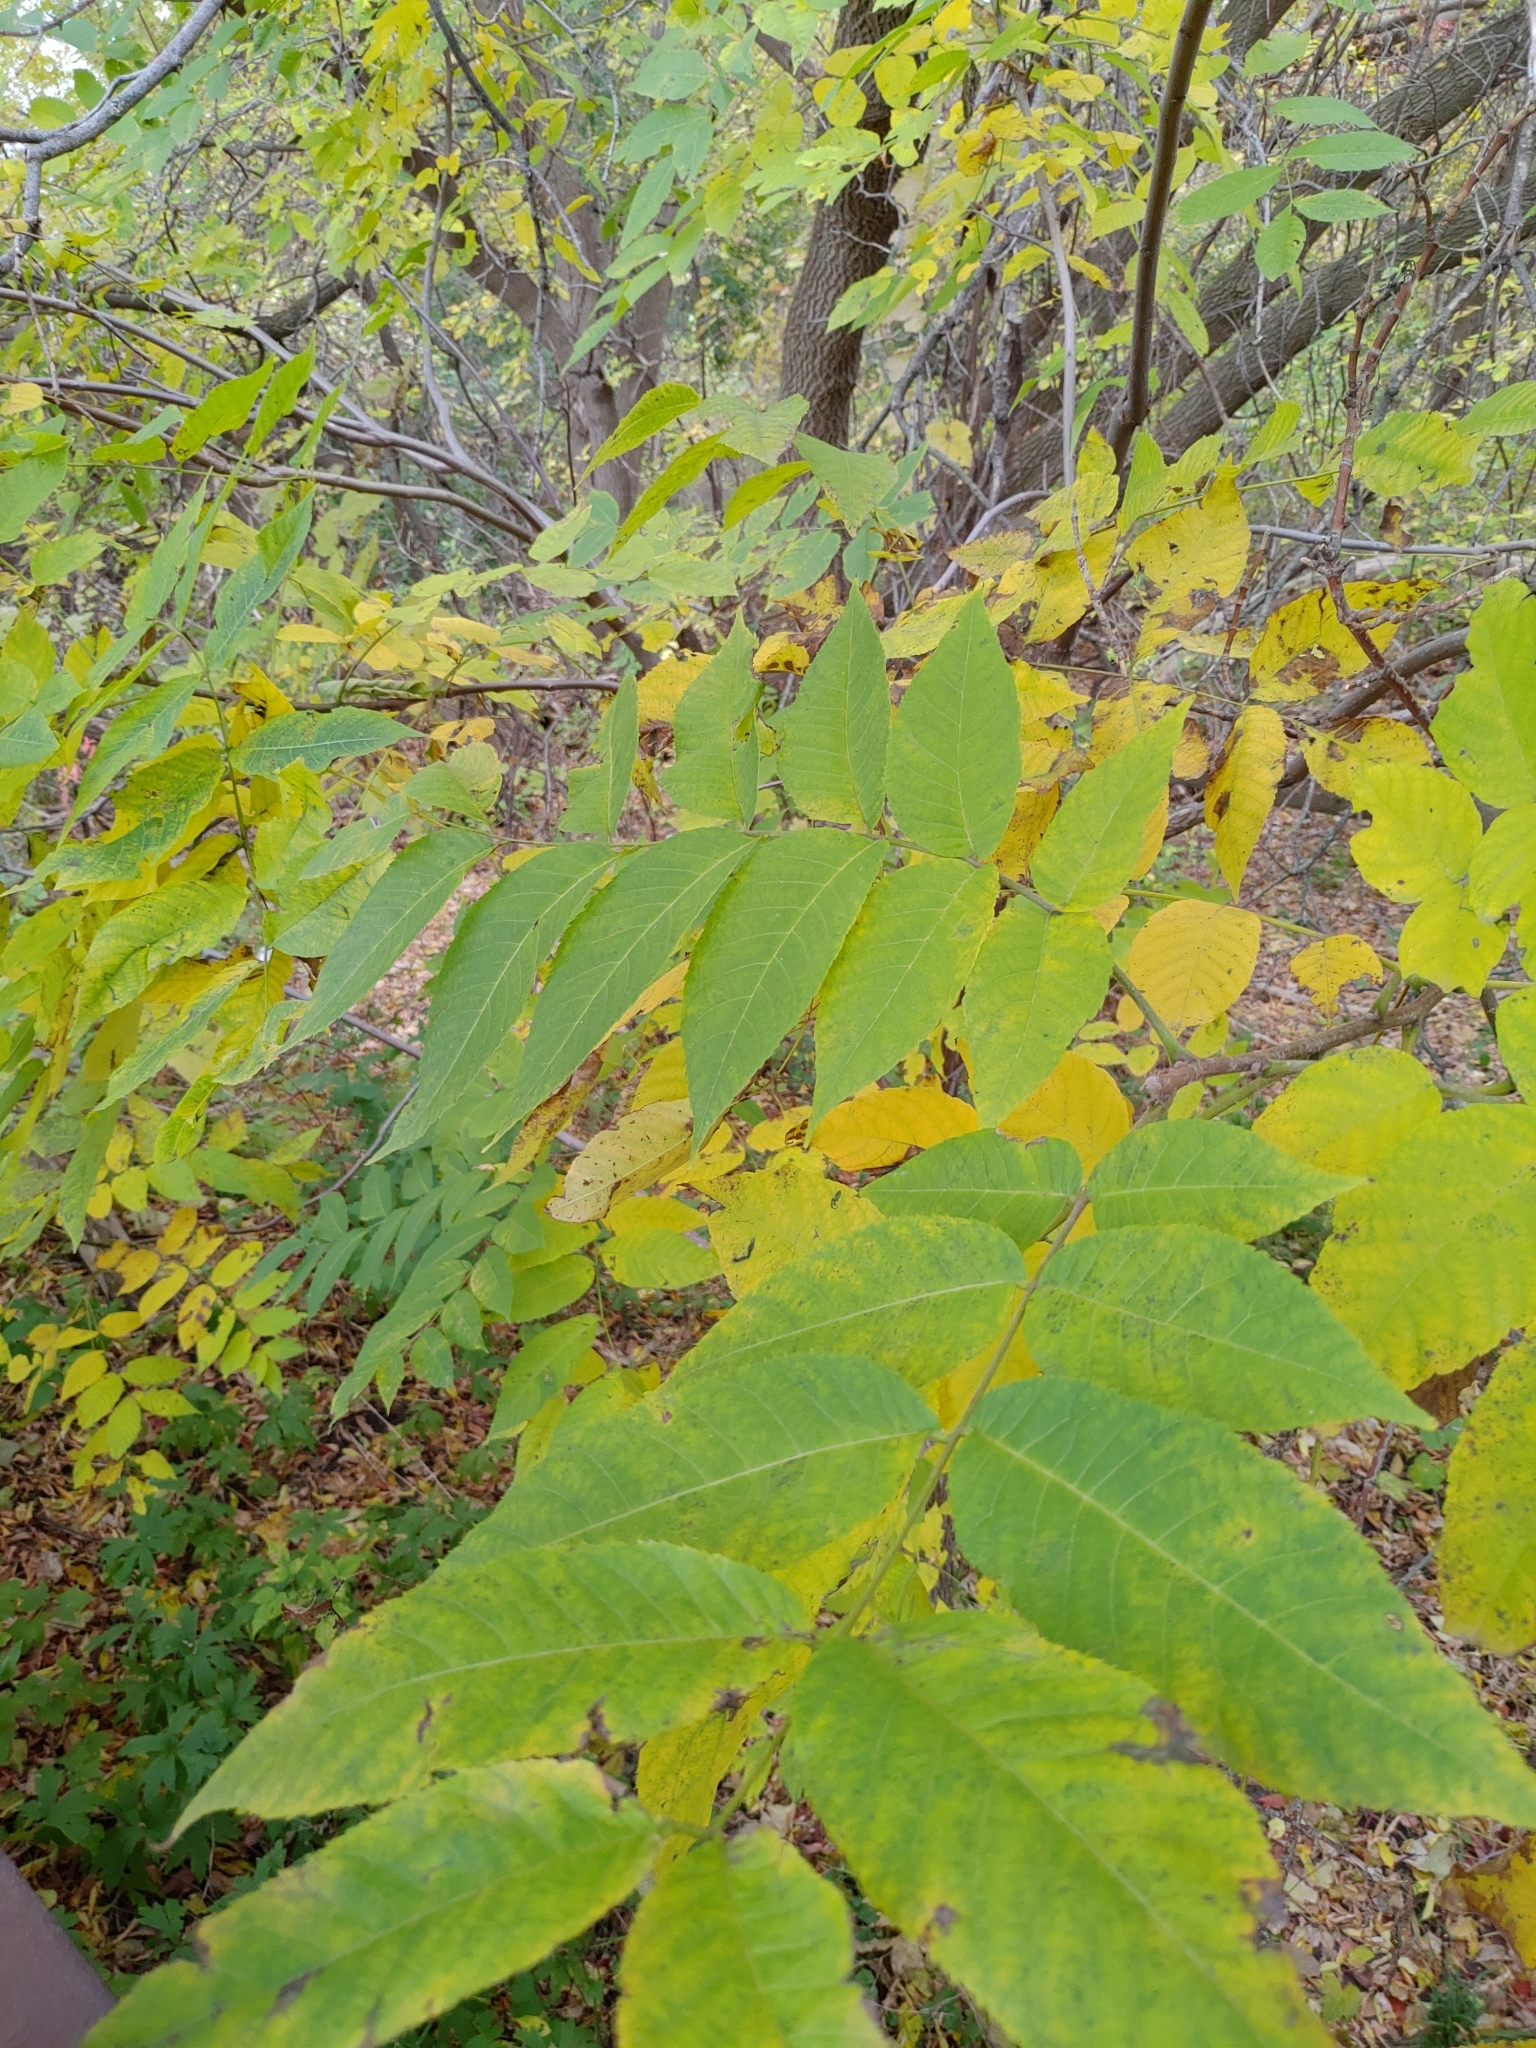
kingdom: Plantae
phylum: Tracheophyta
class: Magnoliopsida
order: Fagales
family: Juglandaceae
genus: Juglans
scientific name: Juglans nigra
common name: Black walnut
